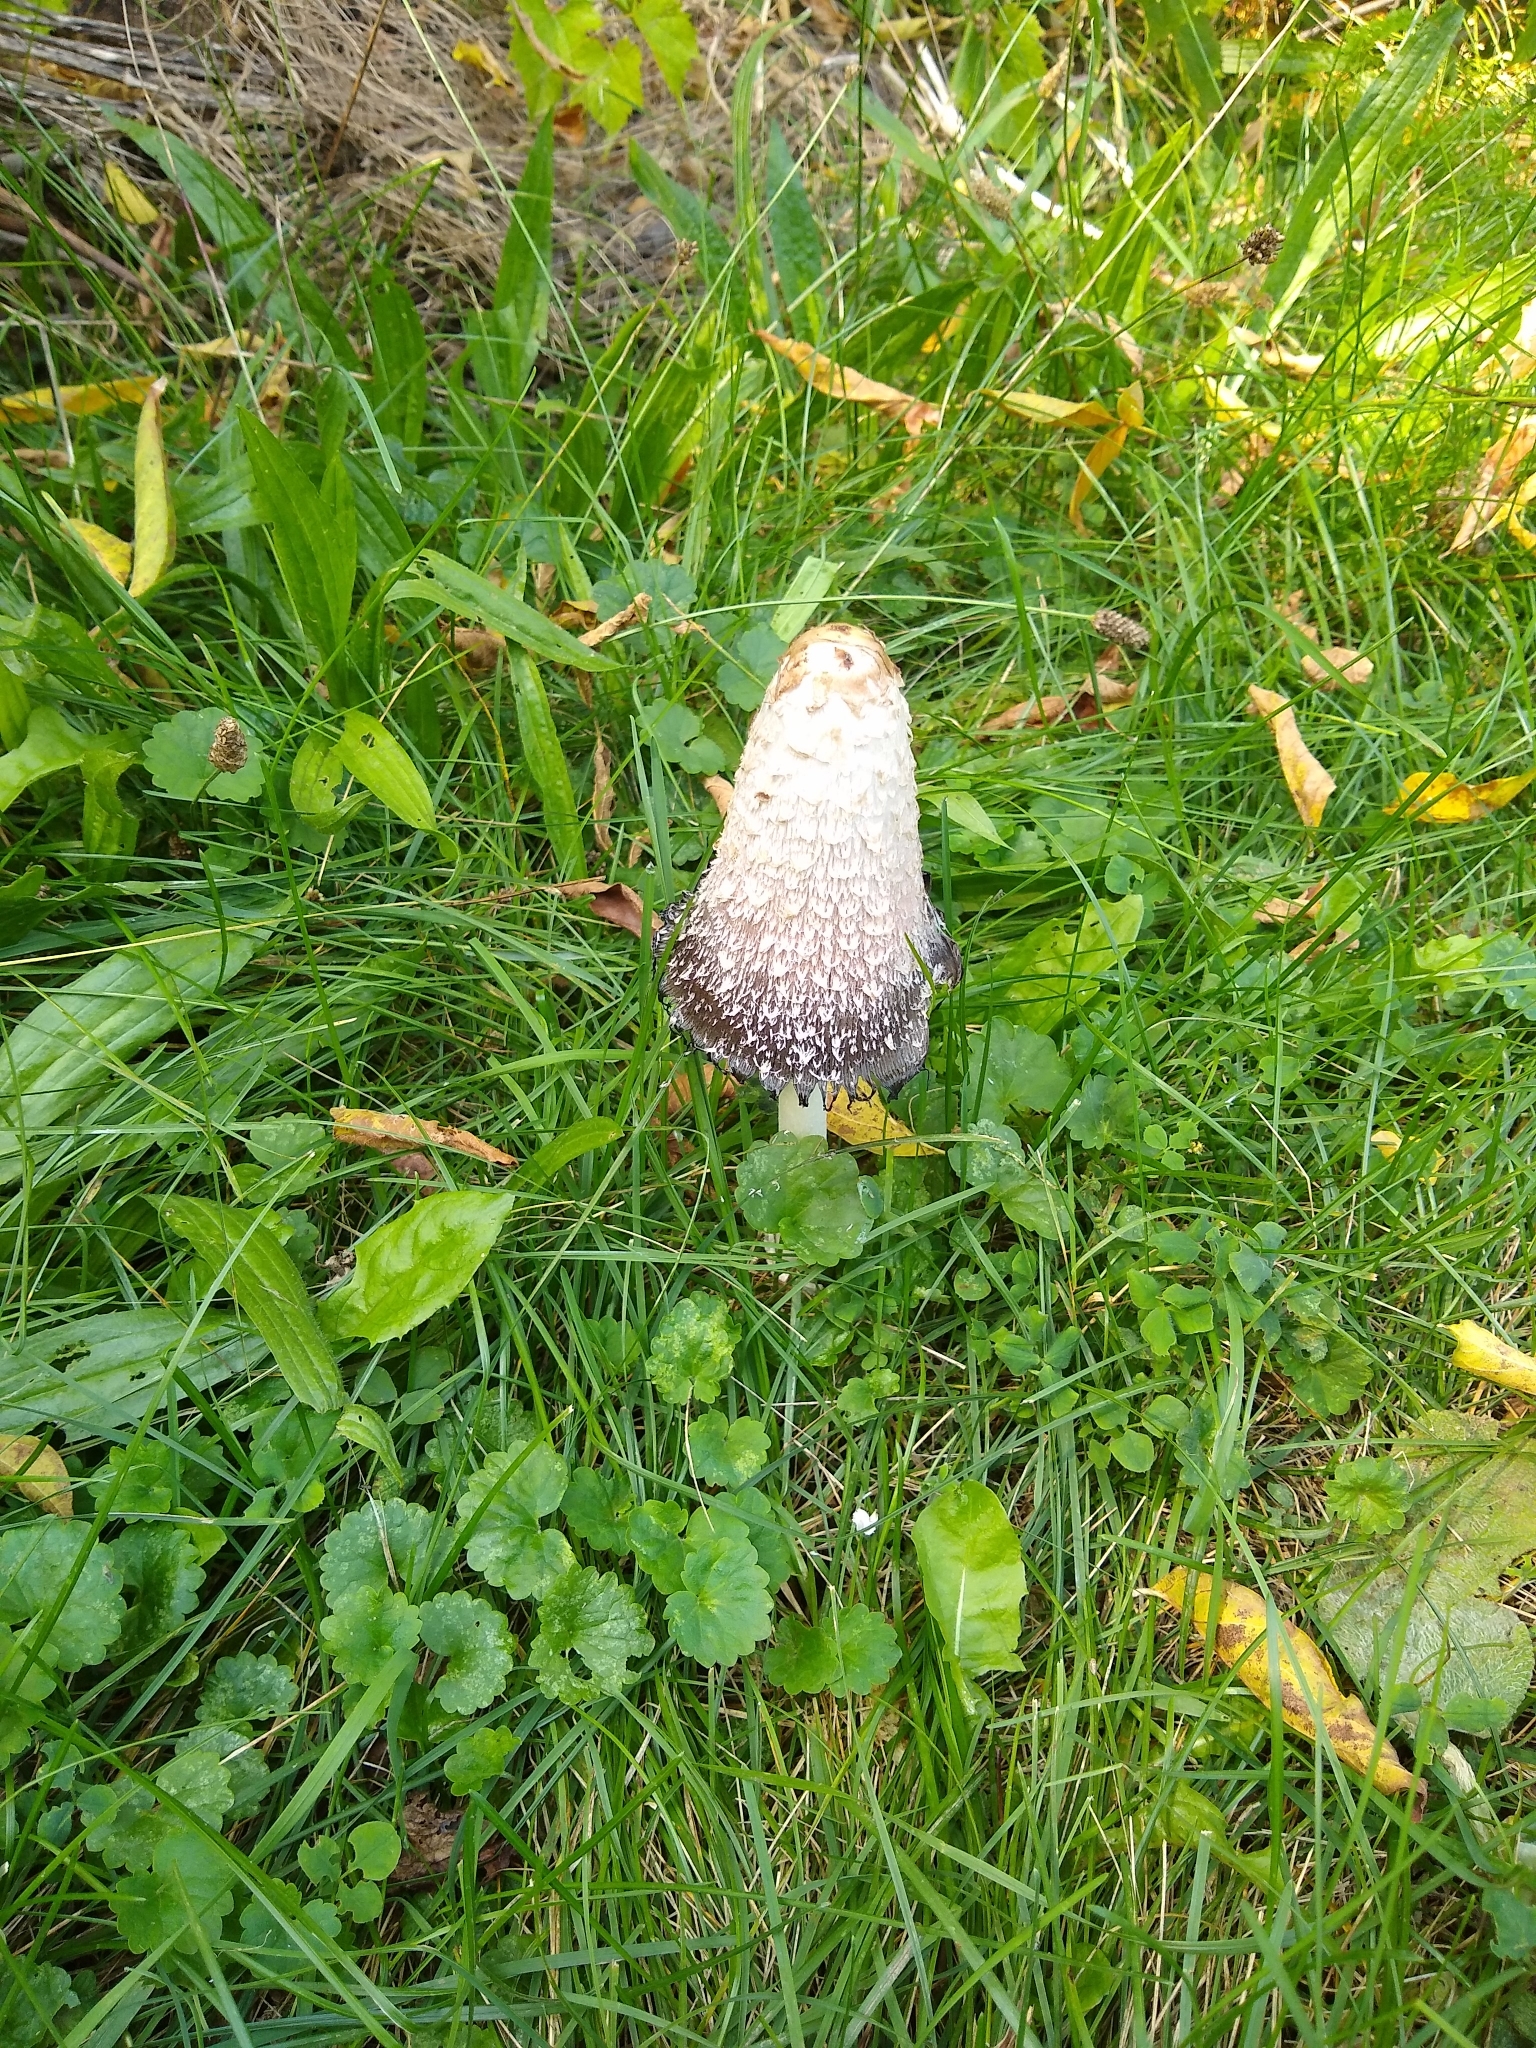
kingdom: Fungi
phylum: Basidiomycota
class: Agaricomycetes
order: Agaricales
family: Agaricaceae
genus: Coprinus
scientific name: Coprinus comatus
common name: Lawyer's wig
